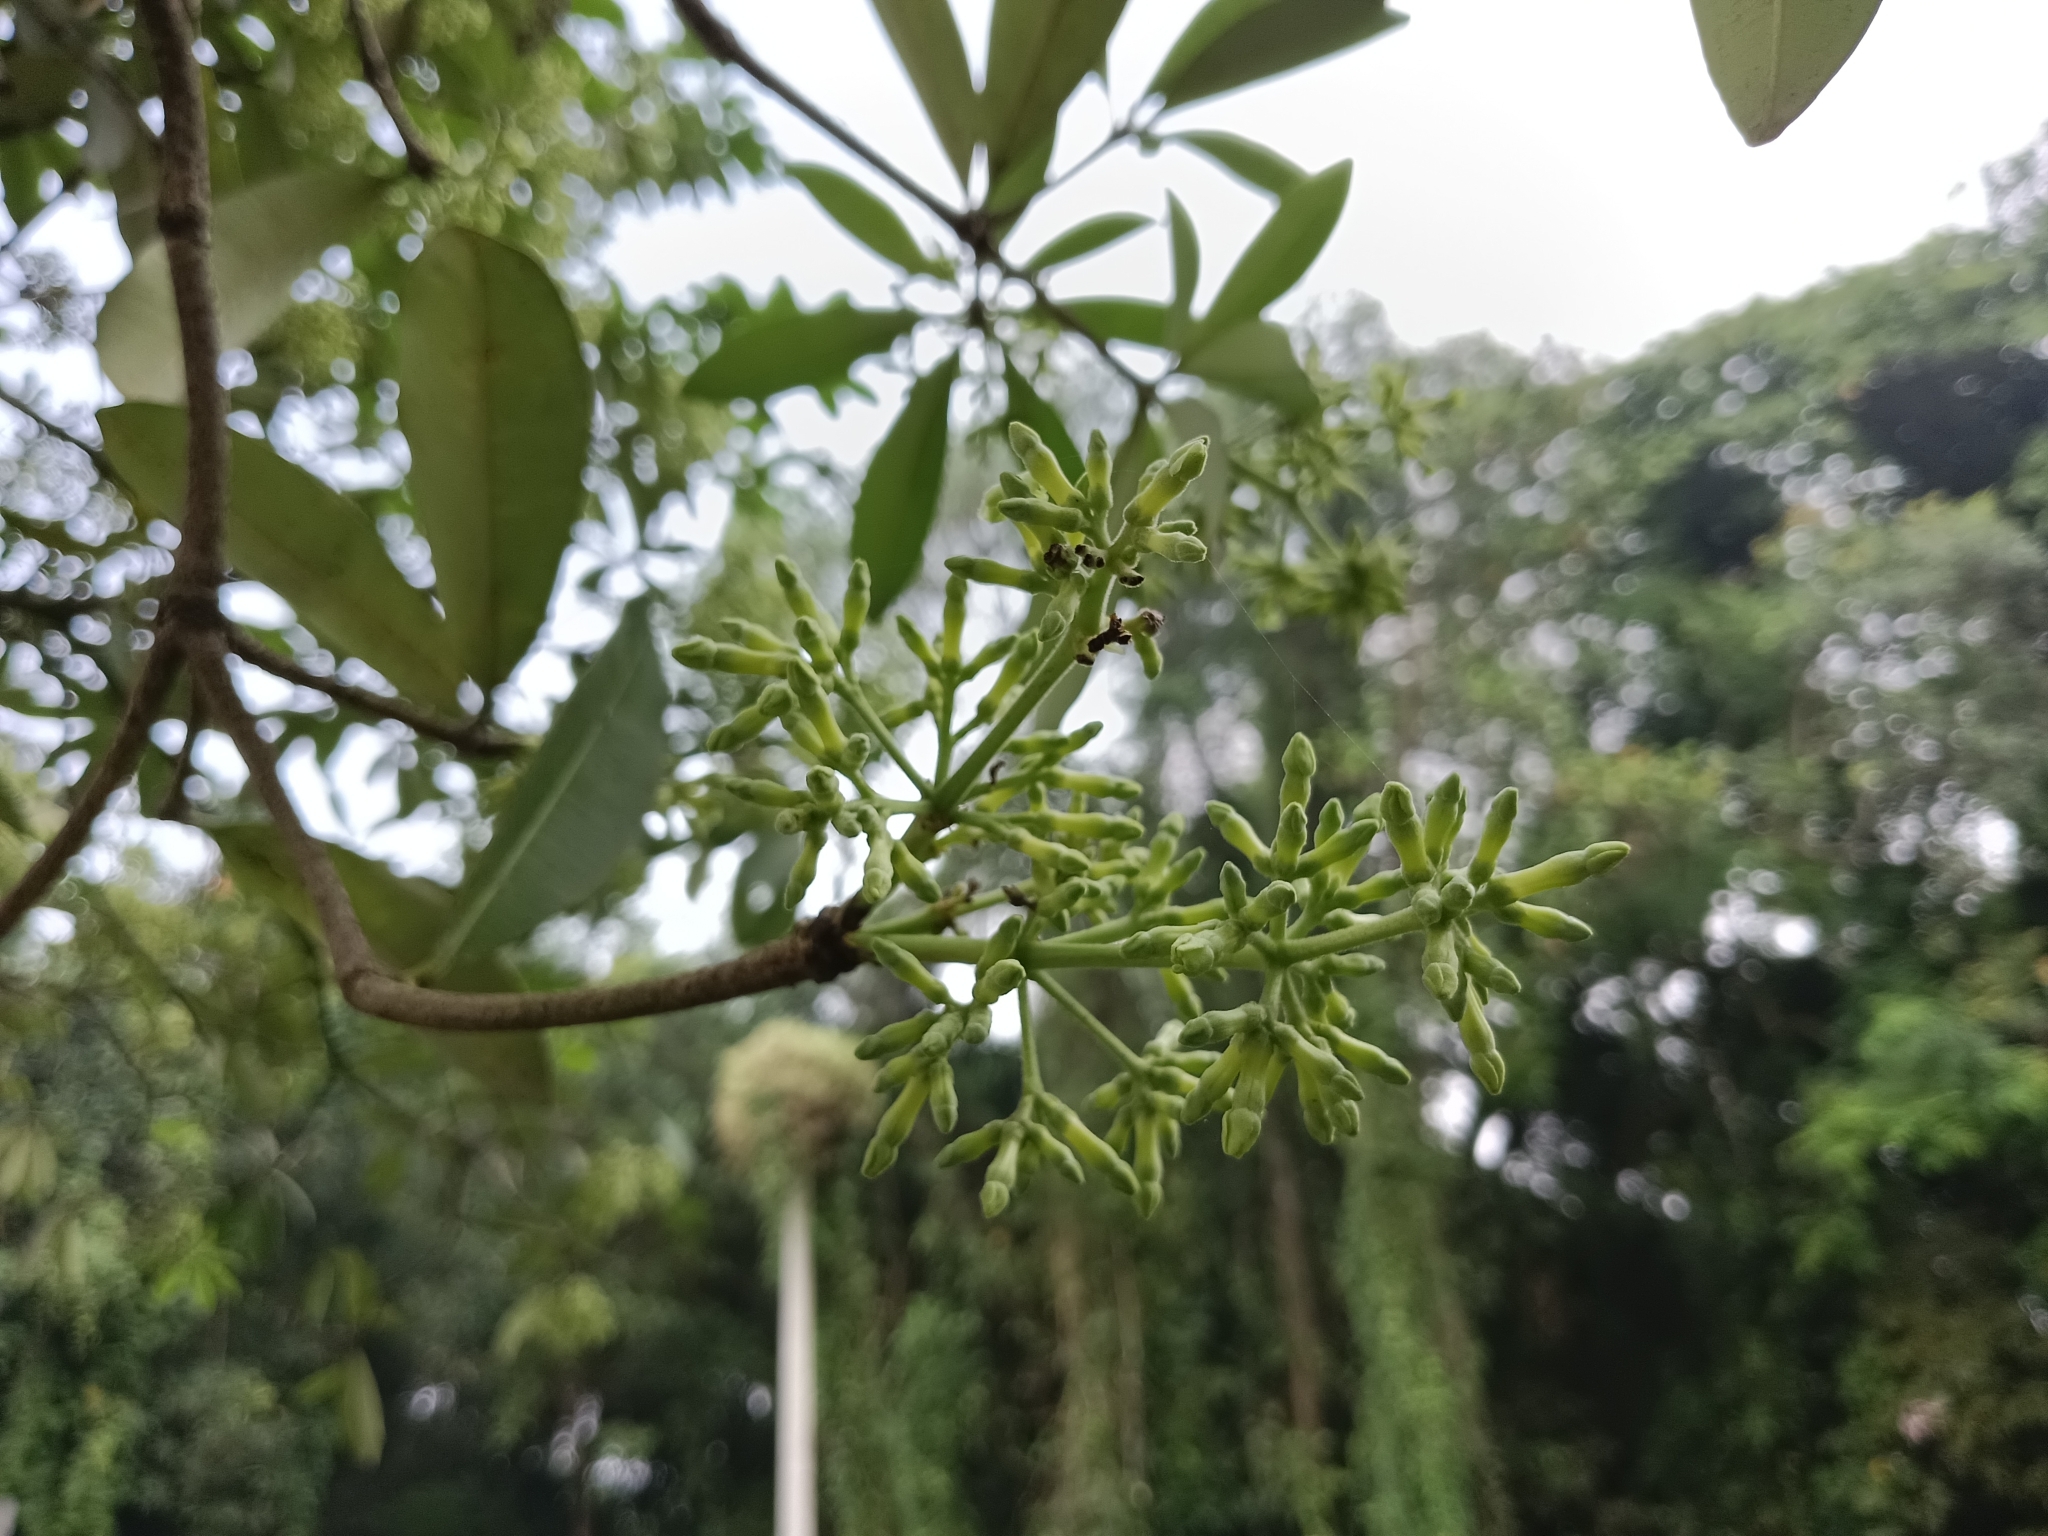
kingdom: Plantae
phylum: Tracheophyta
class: Magnoliopsida
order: Gentianales
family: Apocynaceae
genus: Alstonia
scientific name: Alstonia scholaris
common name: White cheesewood
